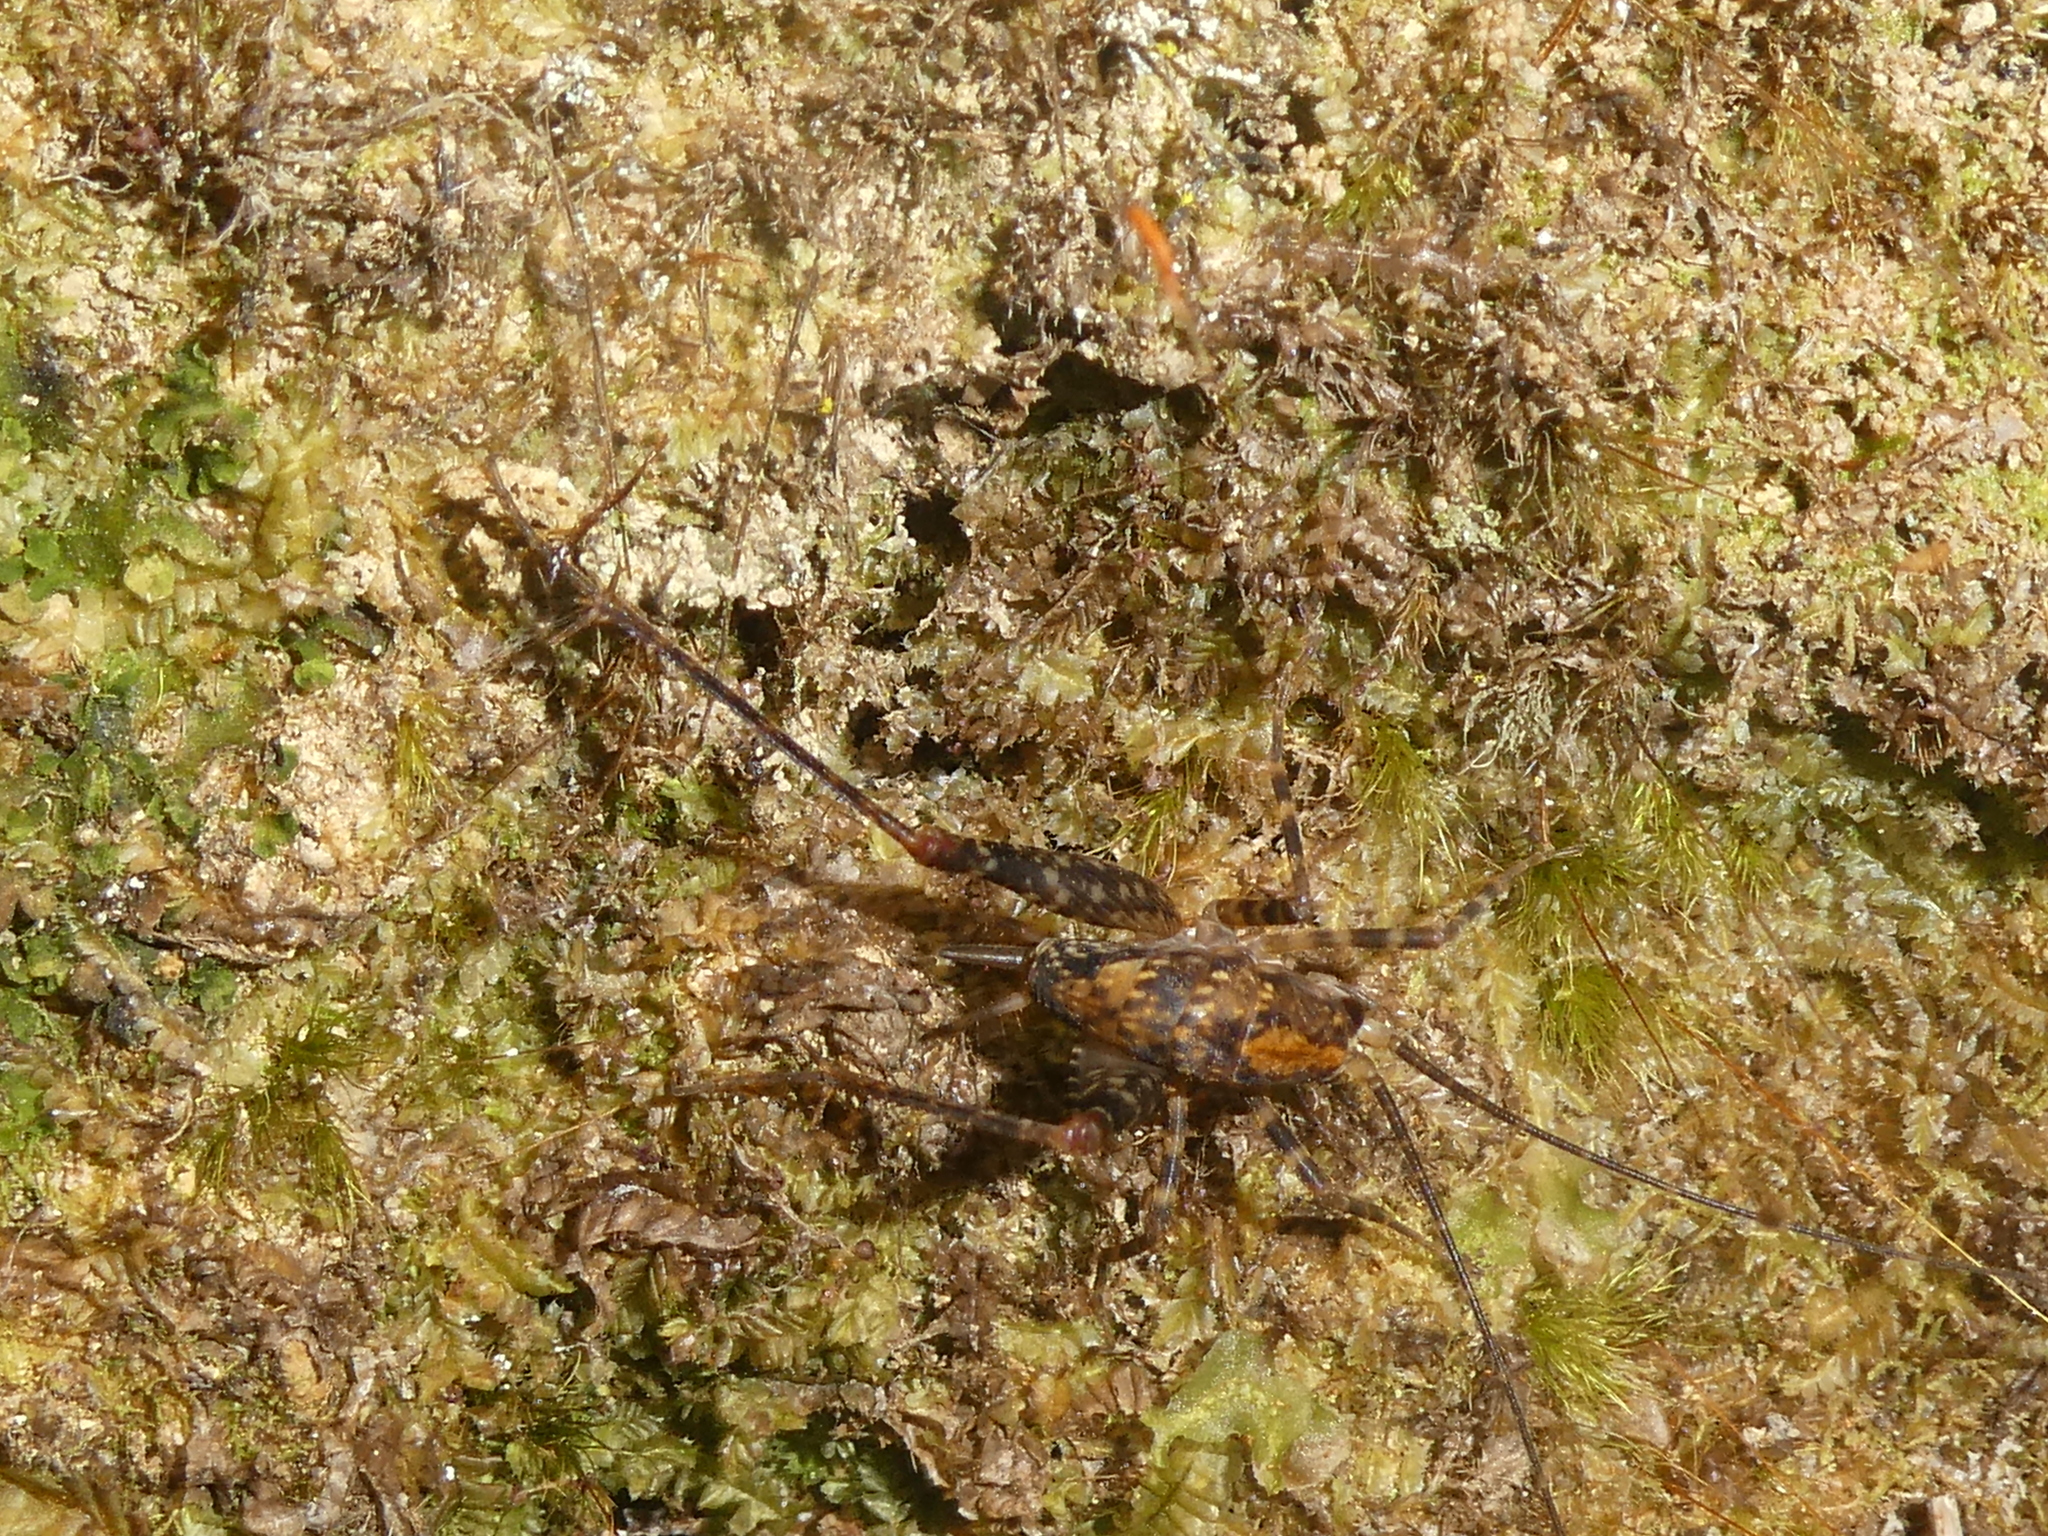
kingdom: Animalia
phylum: Arthropoda
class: Insecta
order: Orthoptera
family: Rhaphidophoridae
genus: Miotopus
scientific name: Miotopus diversus
